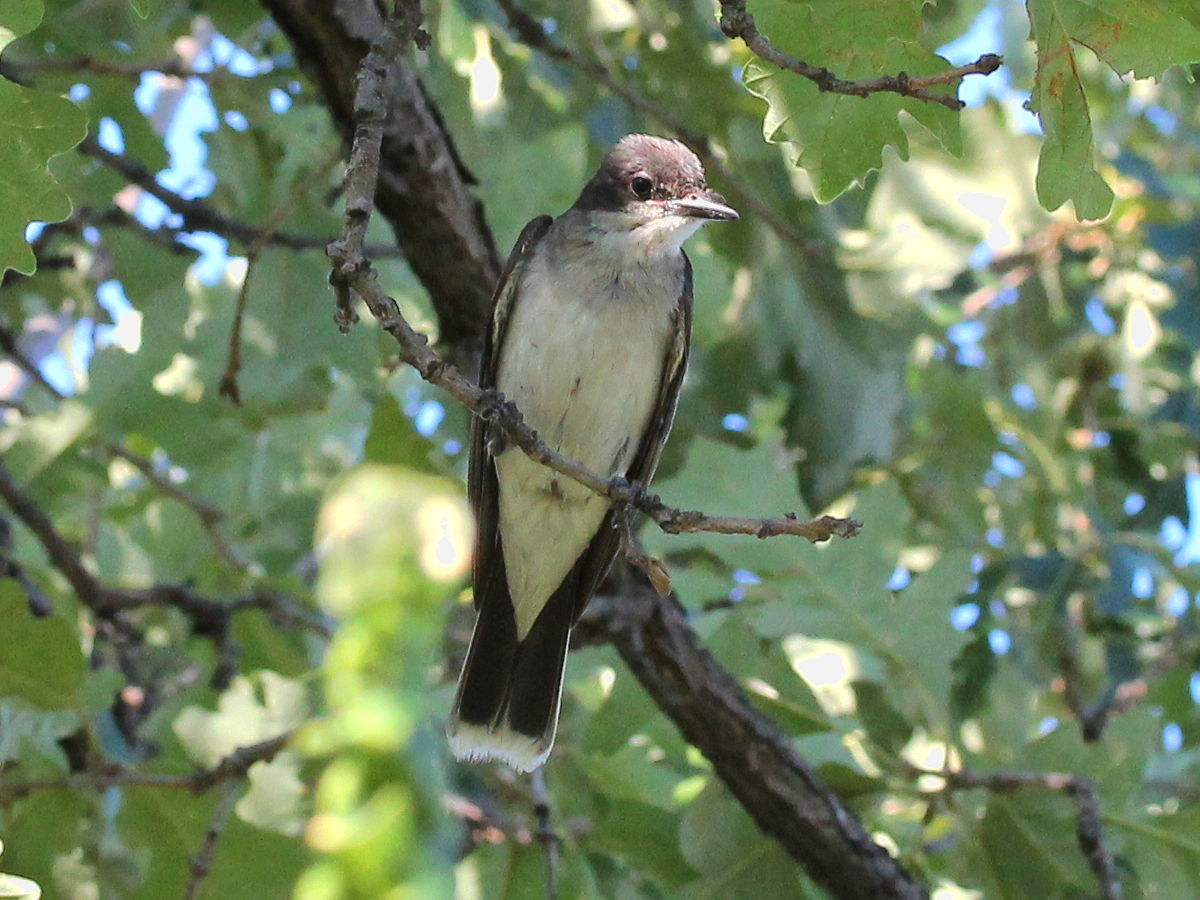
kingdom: Animalia
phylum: Chordata
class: Aves
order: Passeriformes
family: Tyrannidae
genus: Tyrannus
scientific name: Tyrannus tyrannus
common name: Eastern kingbird
